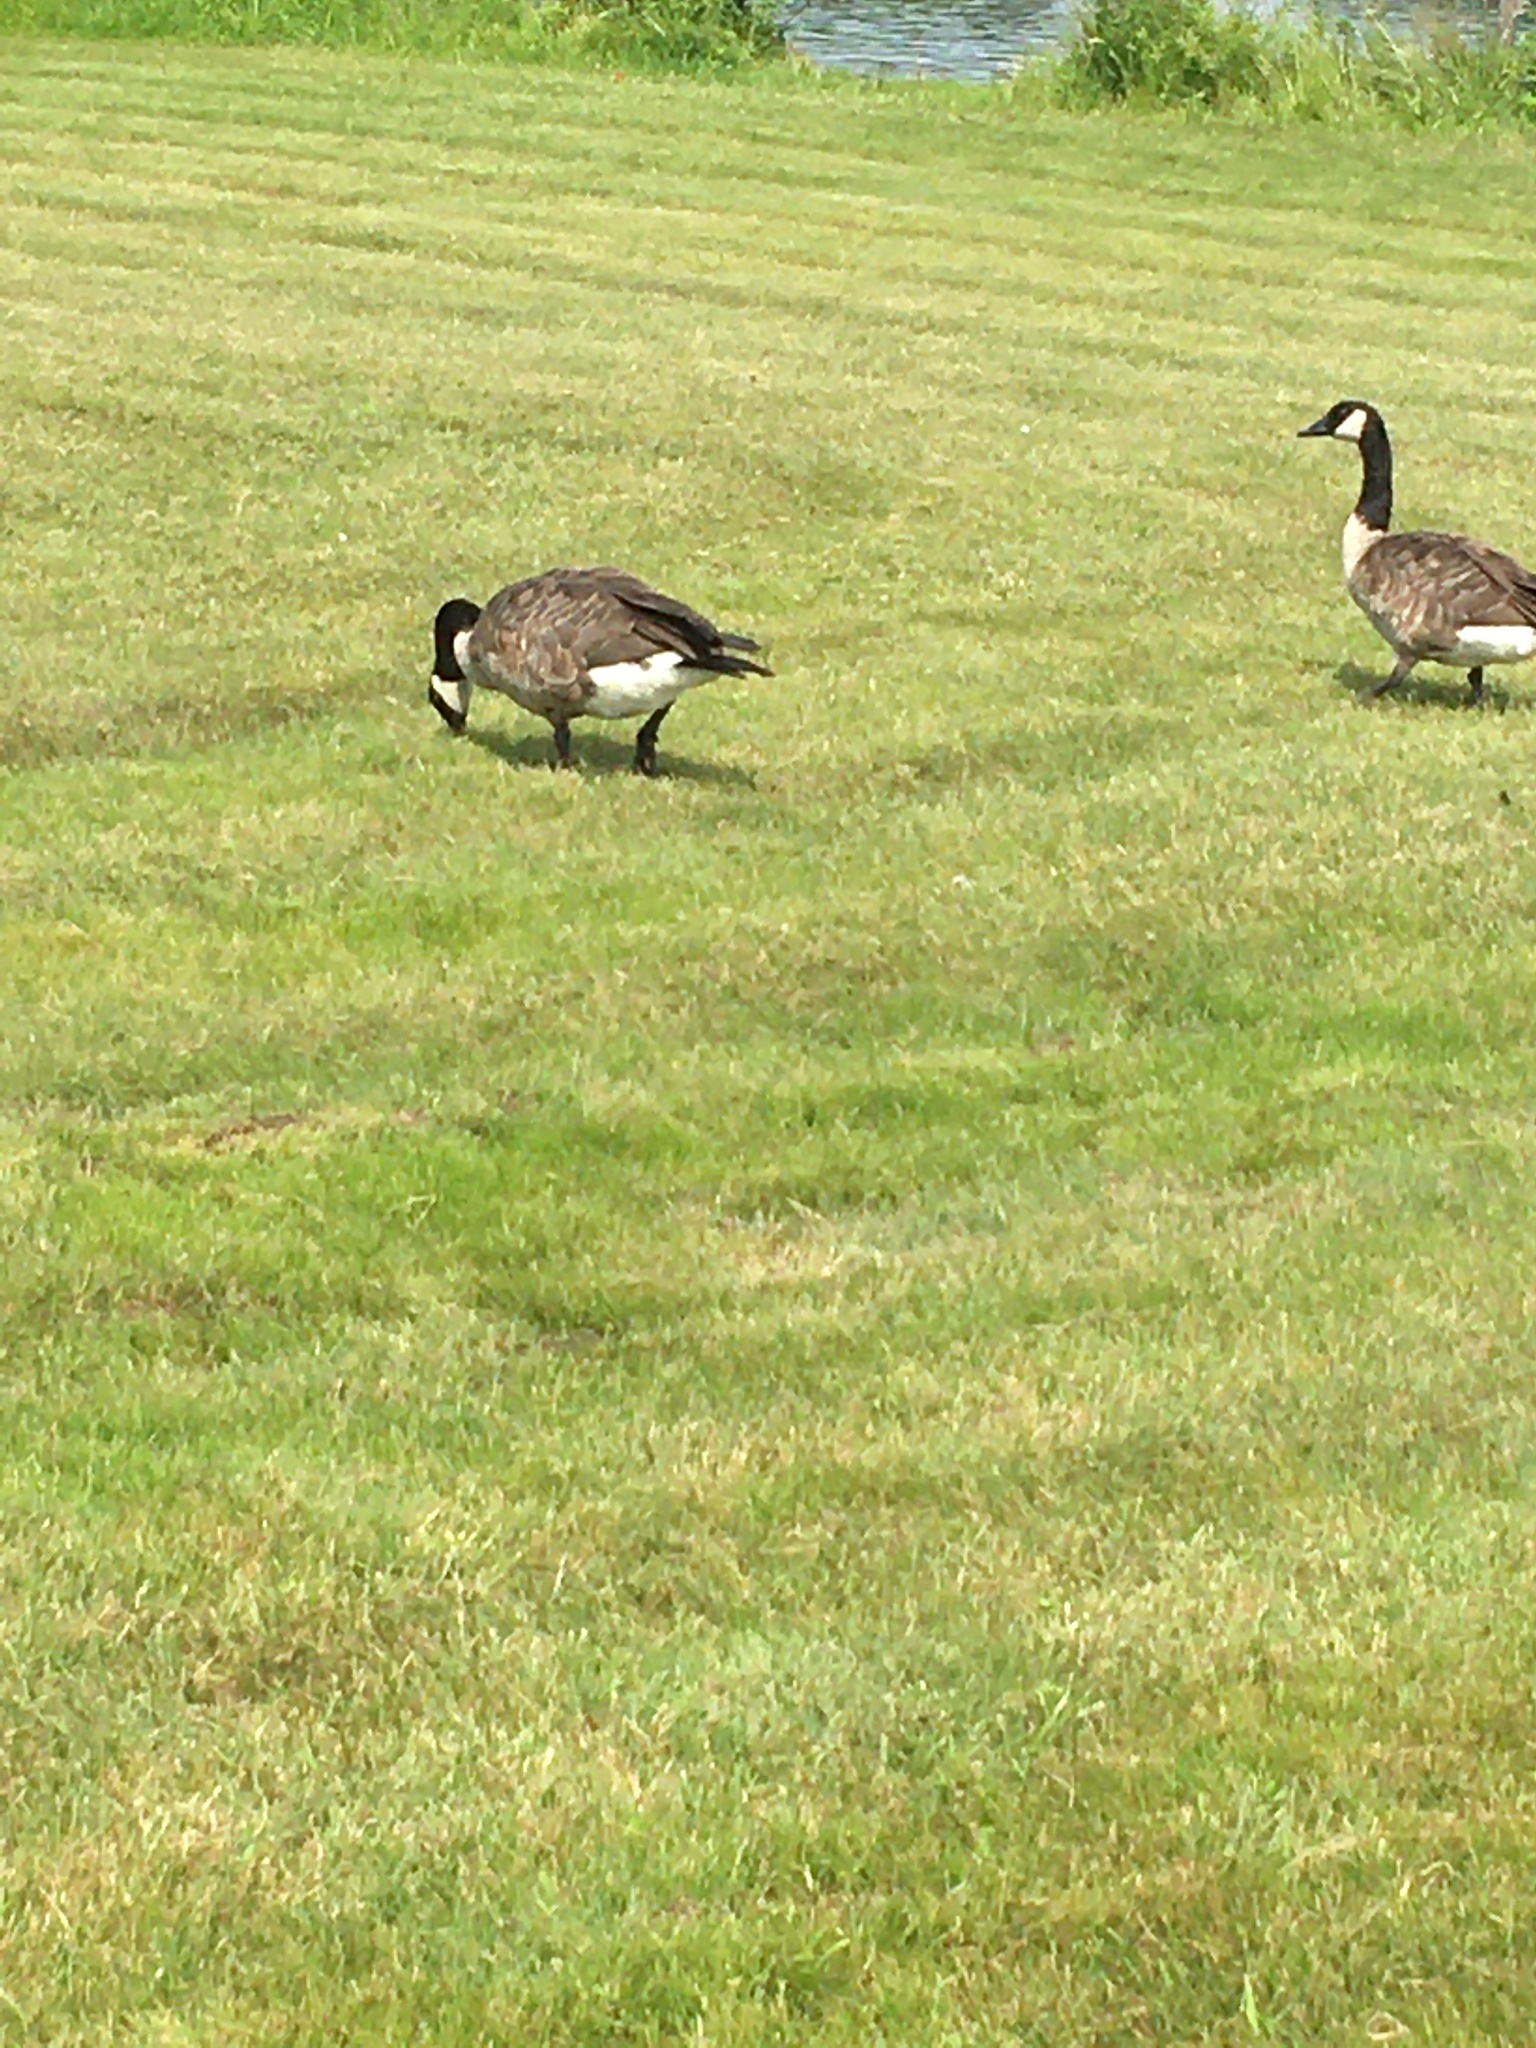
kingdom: Animalia
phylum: Chordata
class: Aves
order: Anseriformes
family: Anatidae
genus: Branta
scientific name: Branta canadensis
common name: Canada goose
